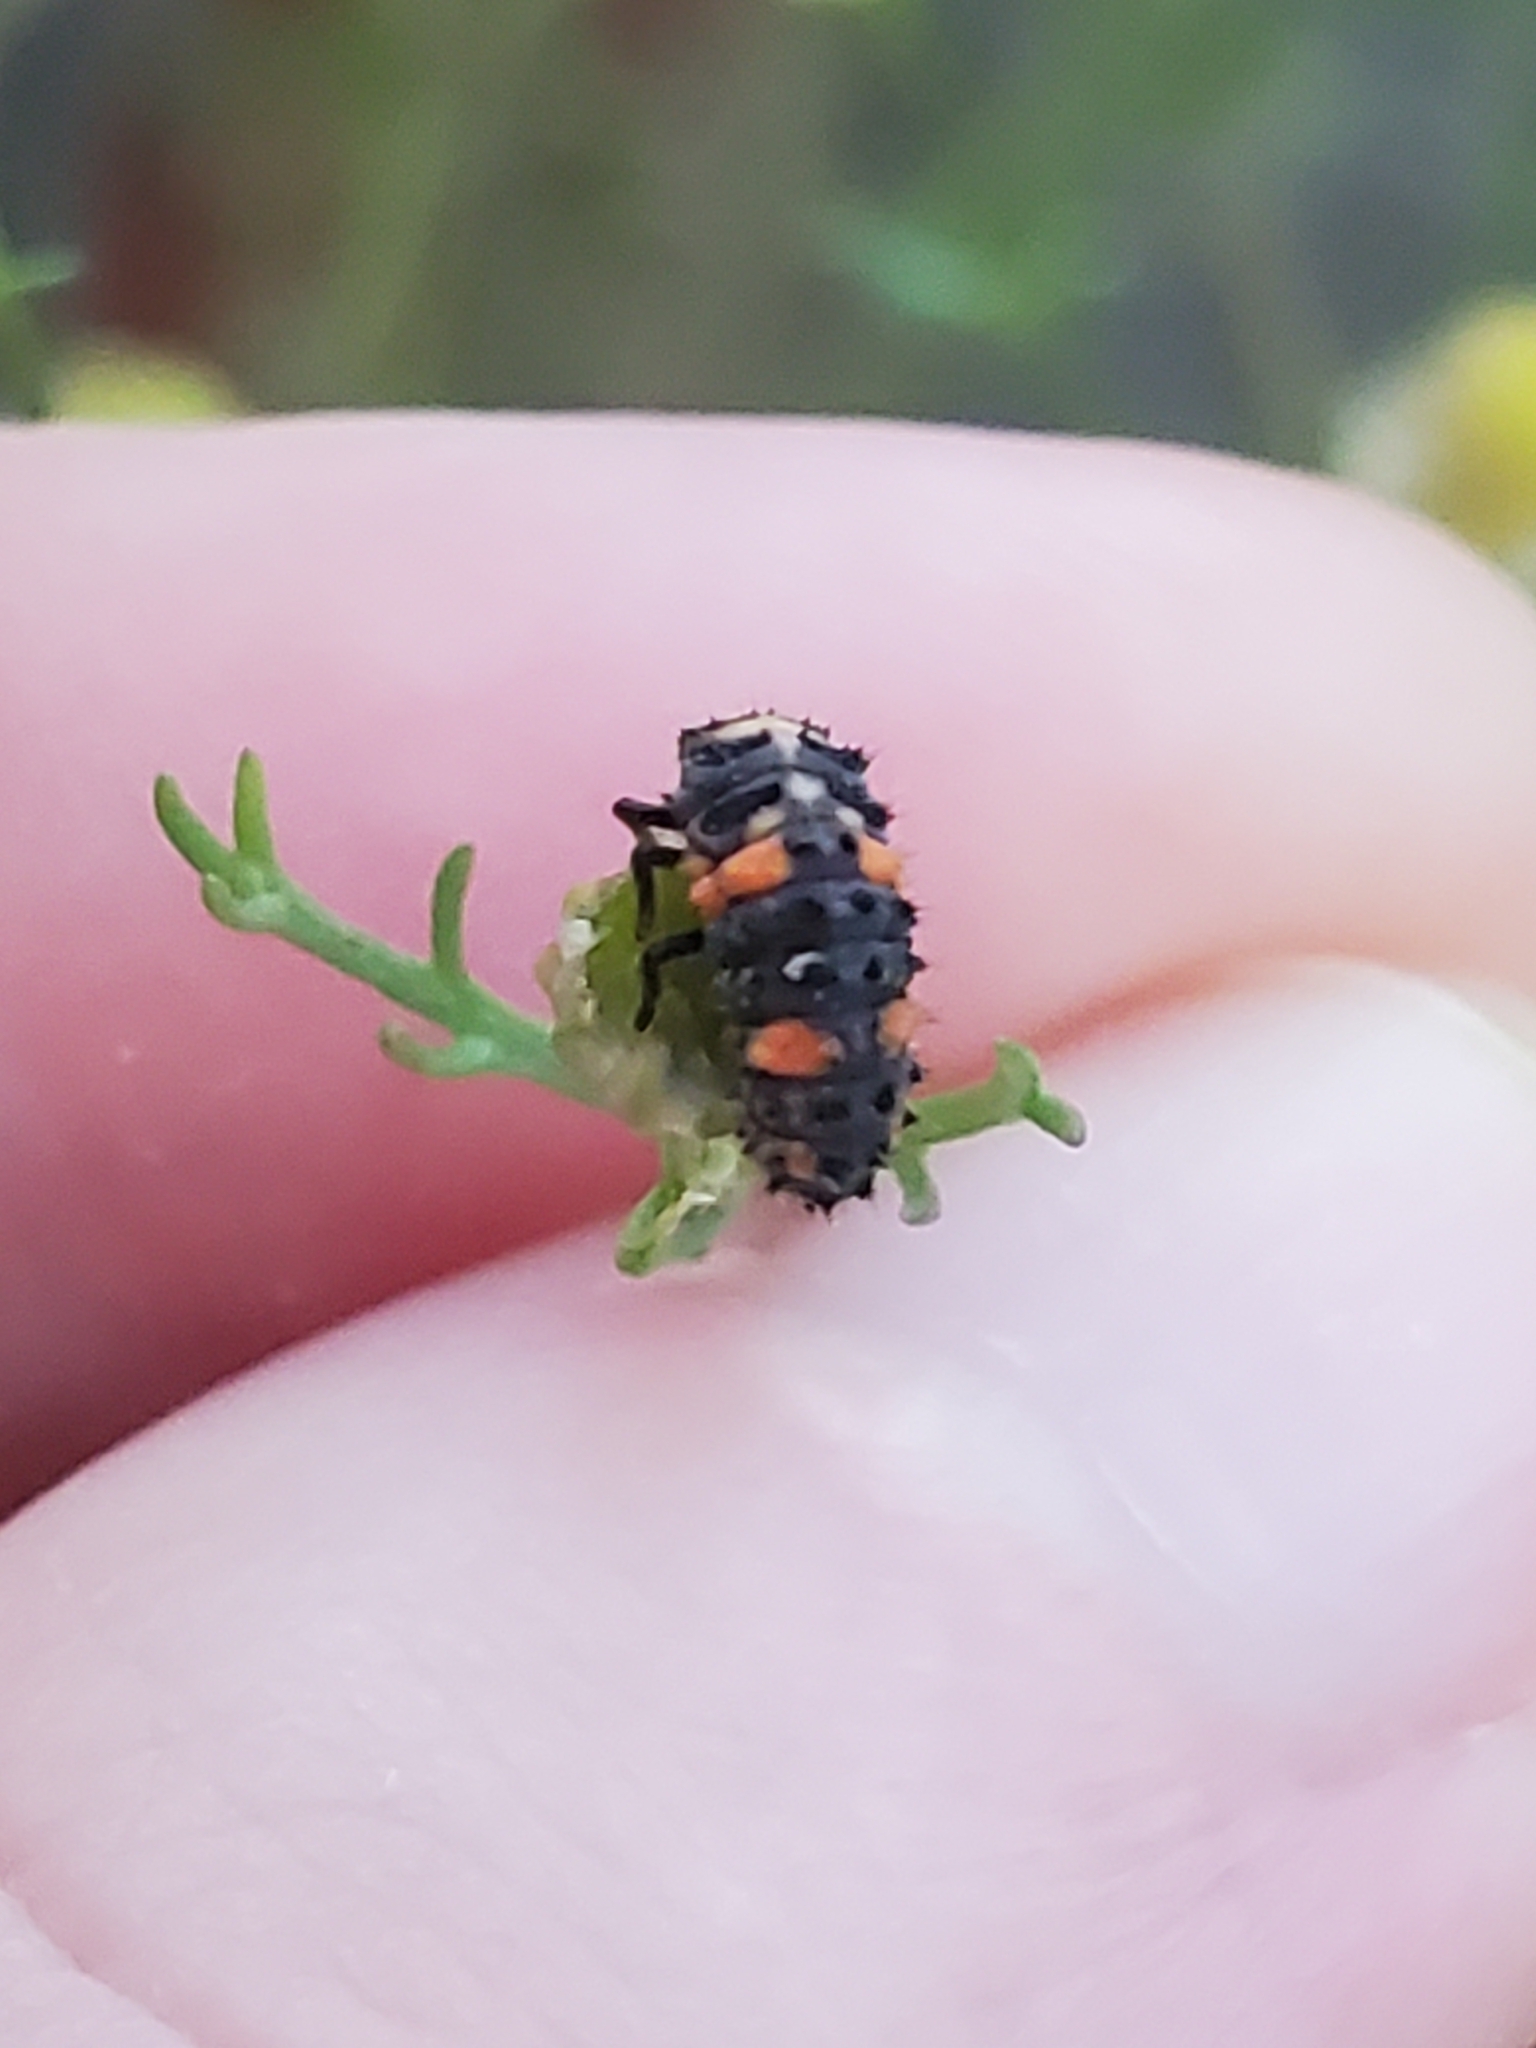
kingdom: Animalia
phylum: Arthropoda
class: Insecta
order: Coleoptera
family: Coccinellidae
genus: Coccinella
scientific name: Coccinella septempunctata
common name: Sevenspotted lady beetle
